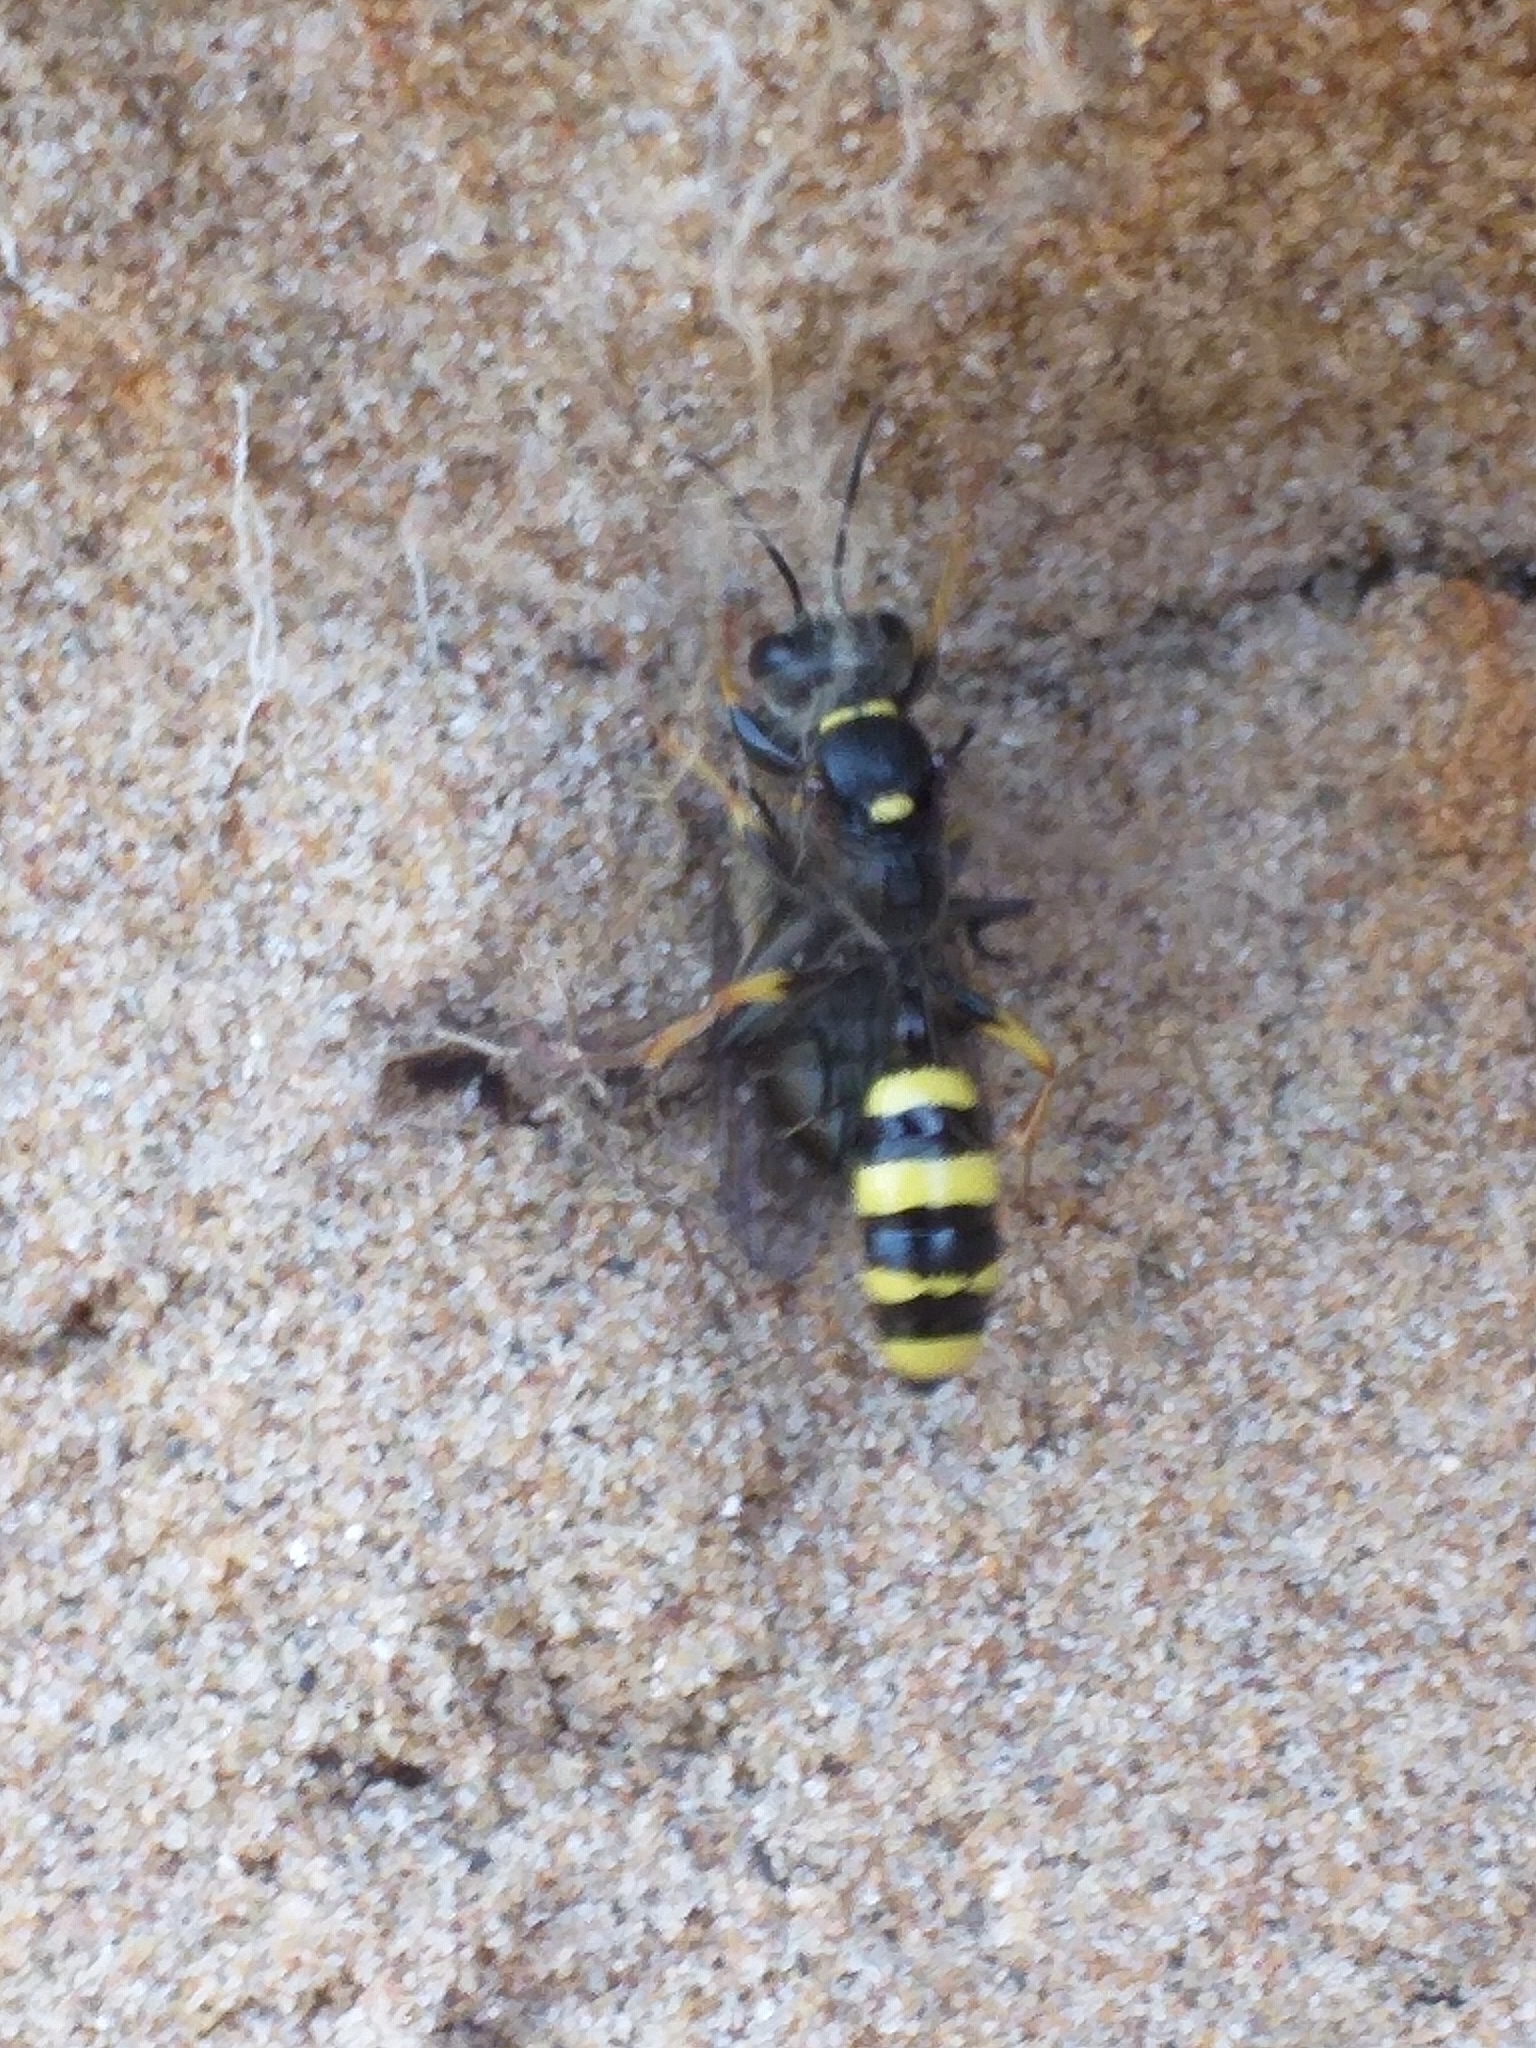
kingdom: Animalia
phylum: Arthropoda
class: Insecta
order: Hymenoptera
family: Crabronidae
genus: Mellinus
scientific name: Mellinus arvensis
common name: Field digger wasp
